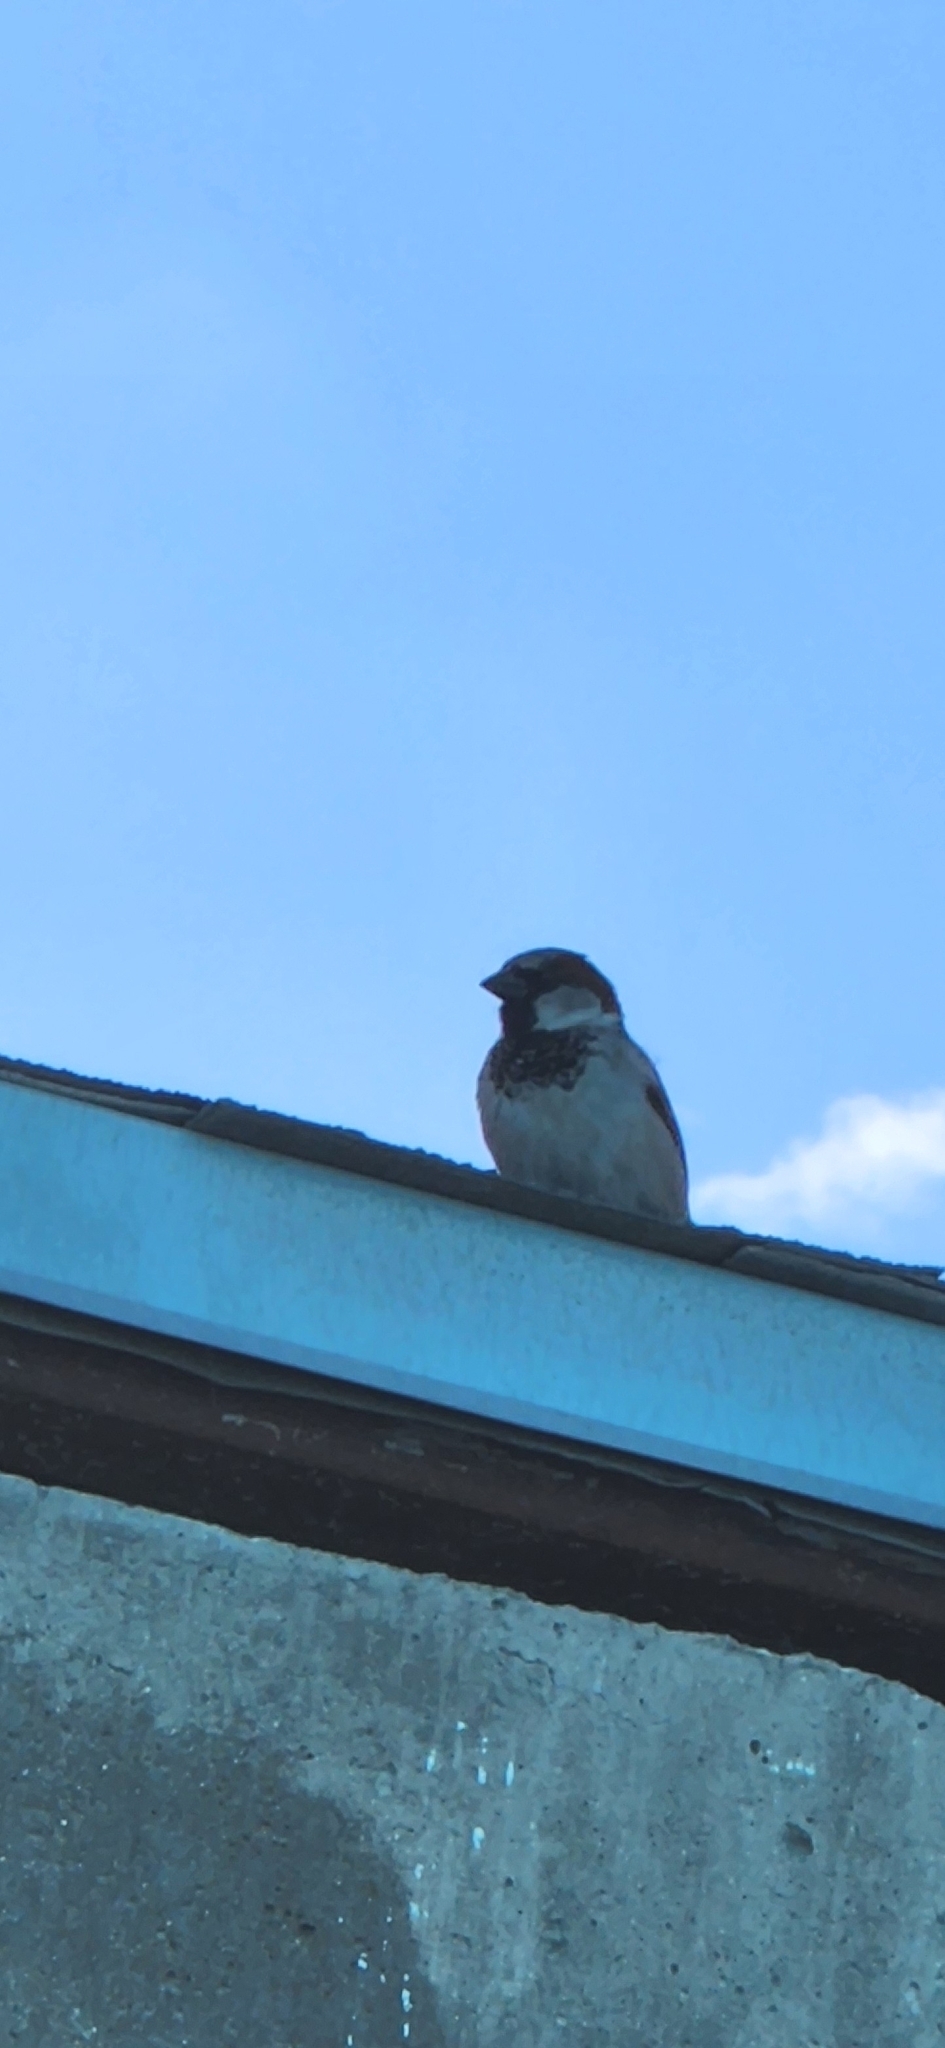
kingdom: Animalia
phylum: Chordata
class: Aves
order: Passeriformes
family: Passeridae
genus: Passer
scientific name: Passer domesticus
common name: House sparrow
